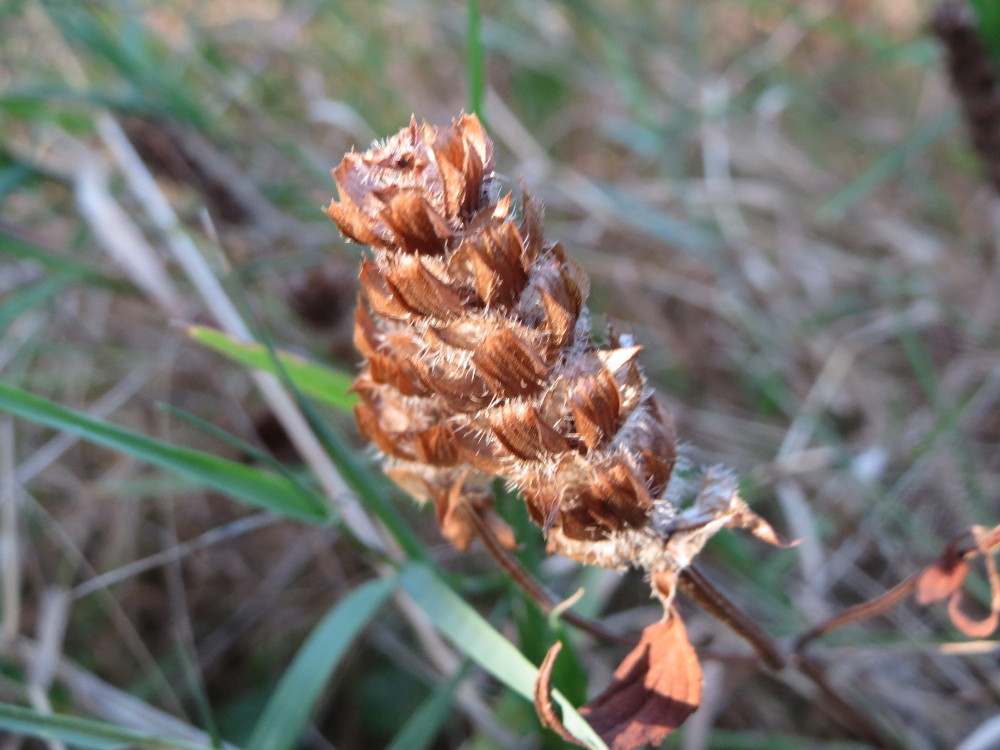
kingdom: Plantae
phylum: Tracheophyta
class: Magnoliopsida
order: Lamiales
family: Lamiaceae
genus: Prunella
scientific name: Prunella vulgaris
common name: Heal-all
